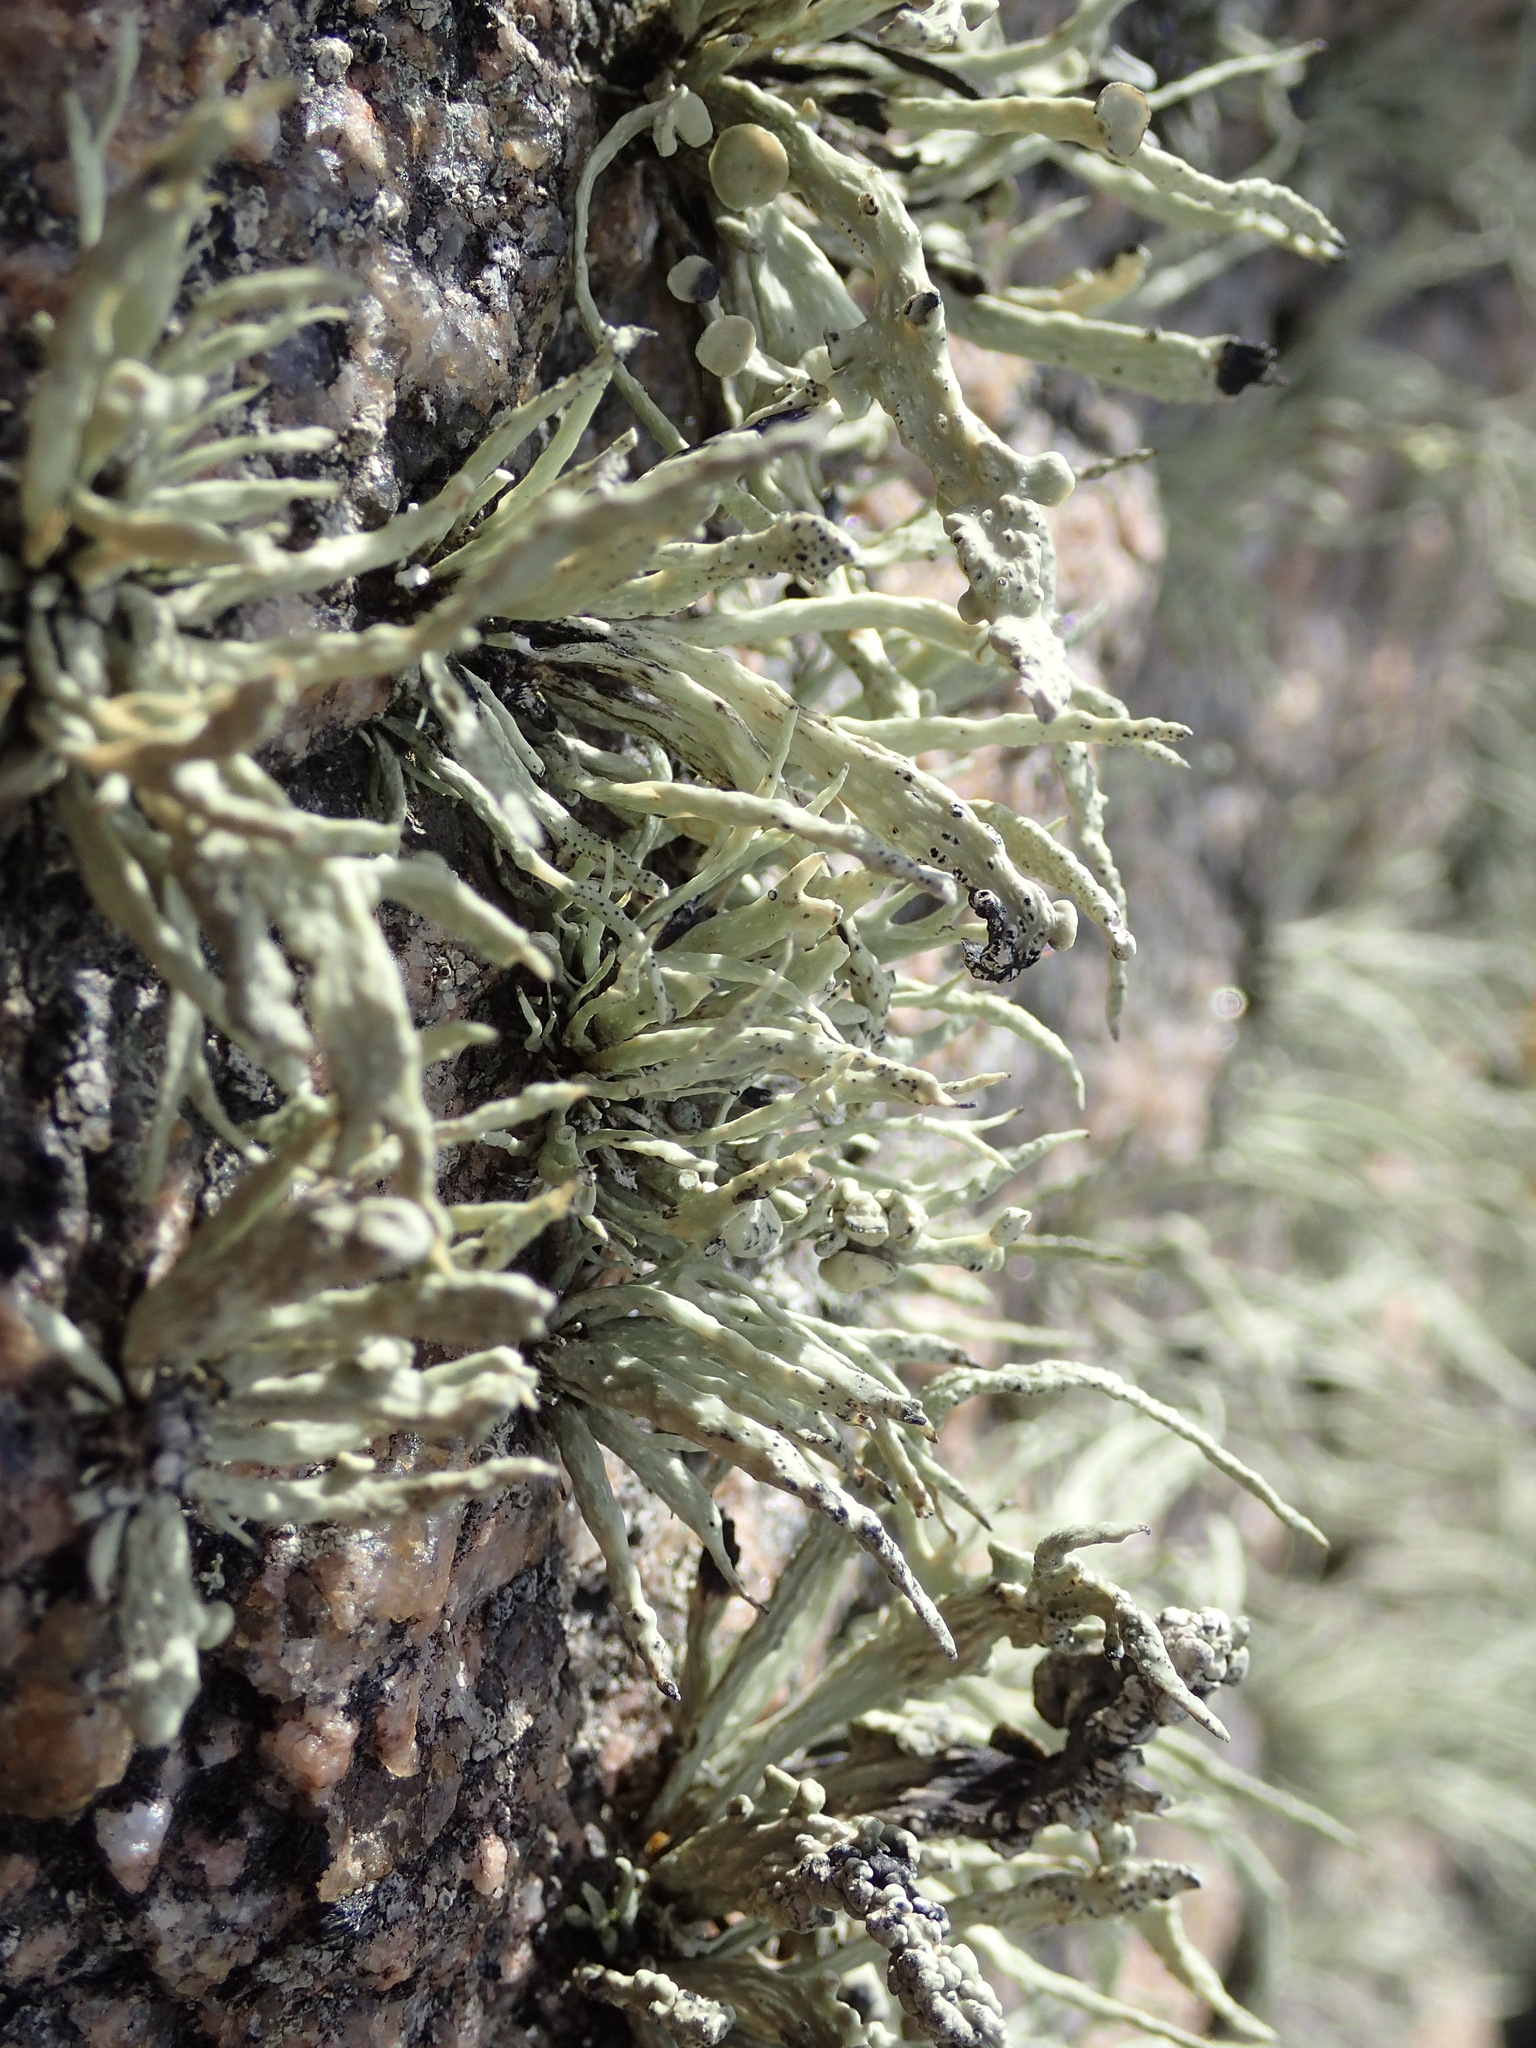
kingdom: Fungi
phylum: Ascomycota
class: Lecanoromycetes
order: Lecanorales
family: Ramalinaceae
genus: Ramalina
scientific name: Ramalina cuspidata
